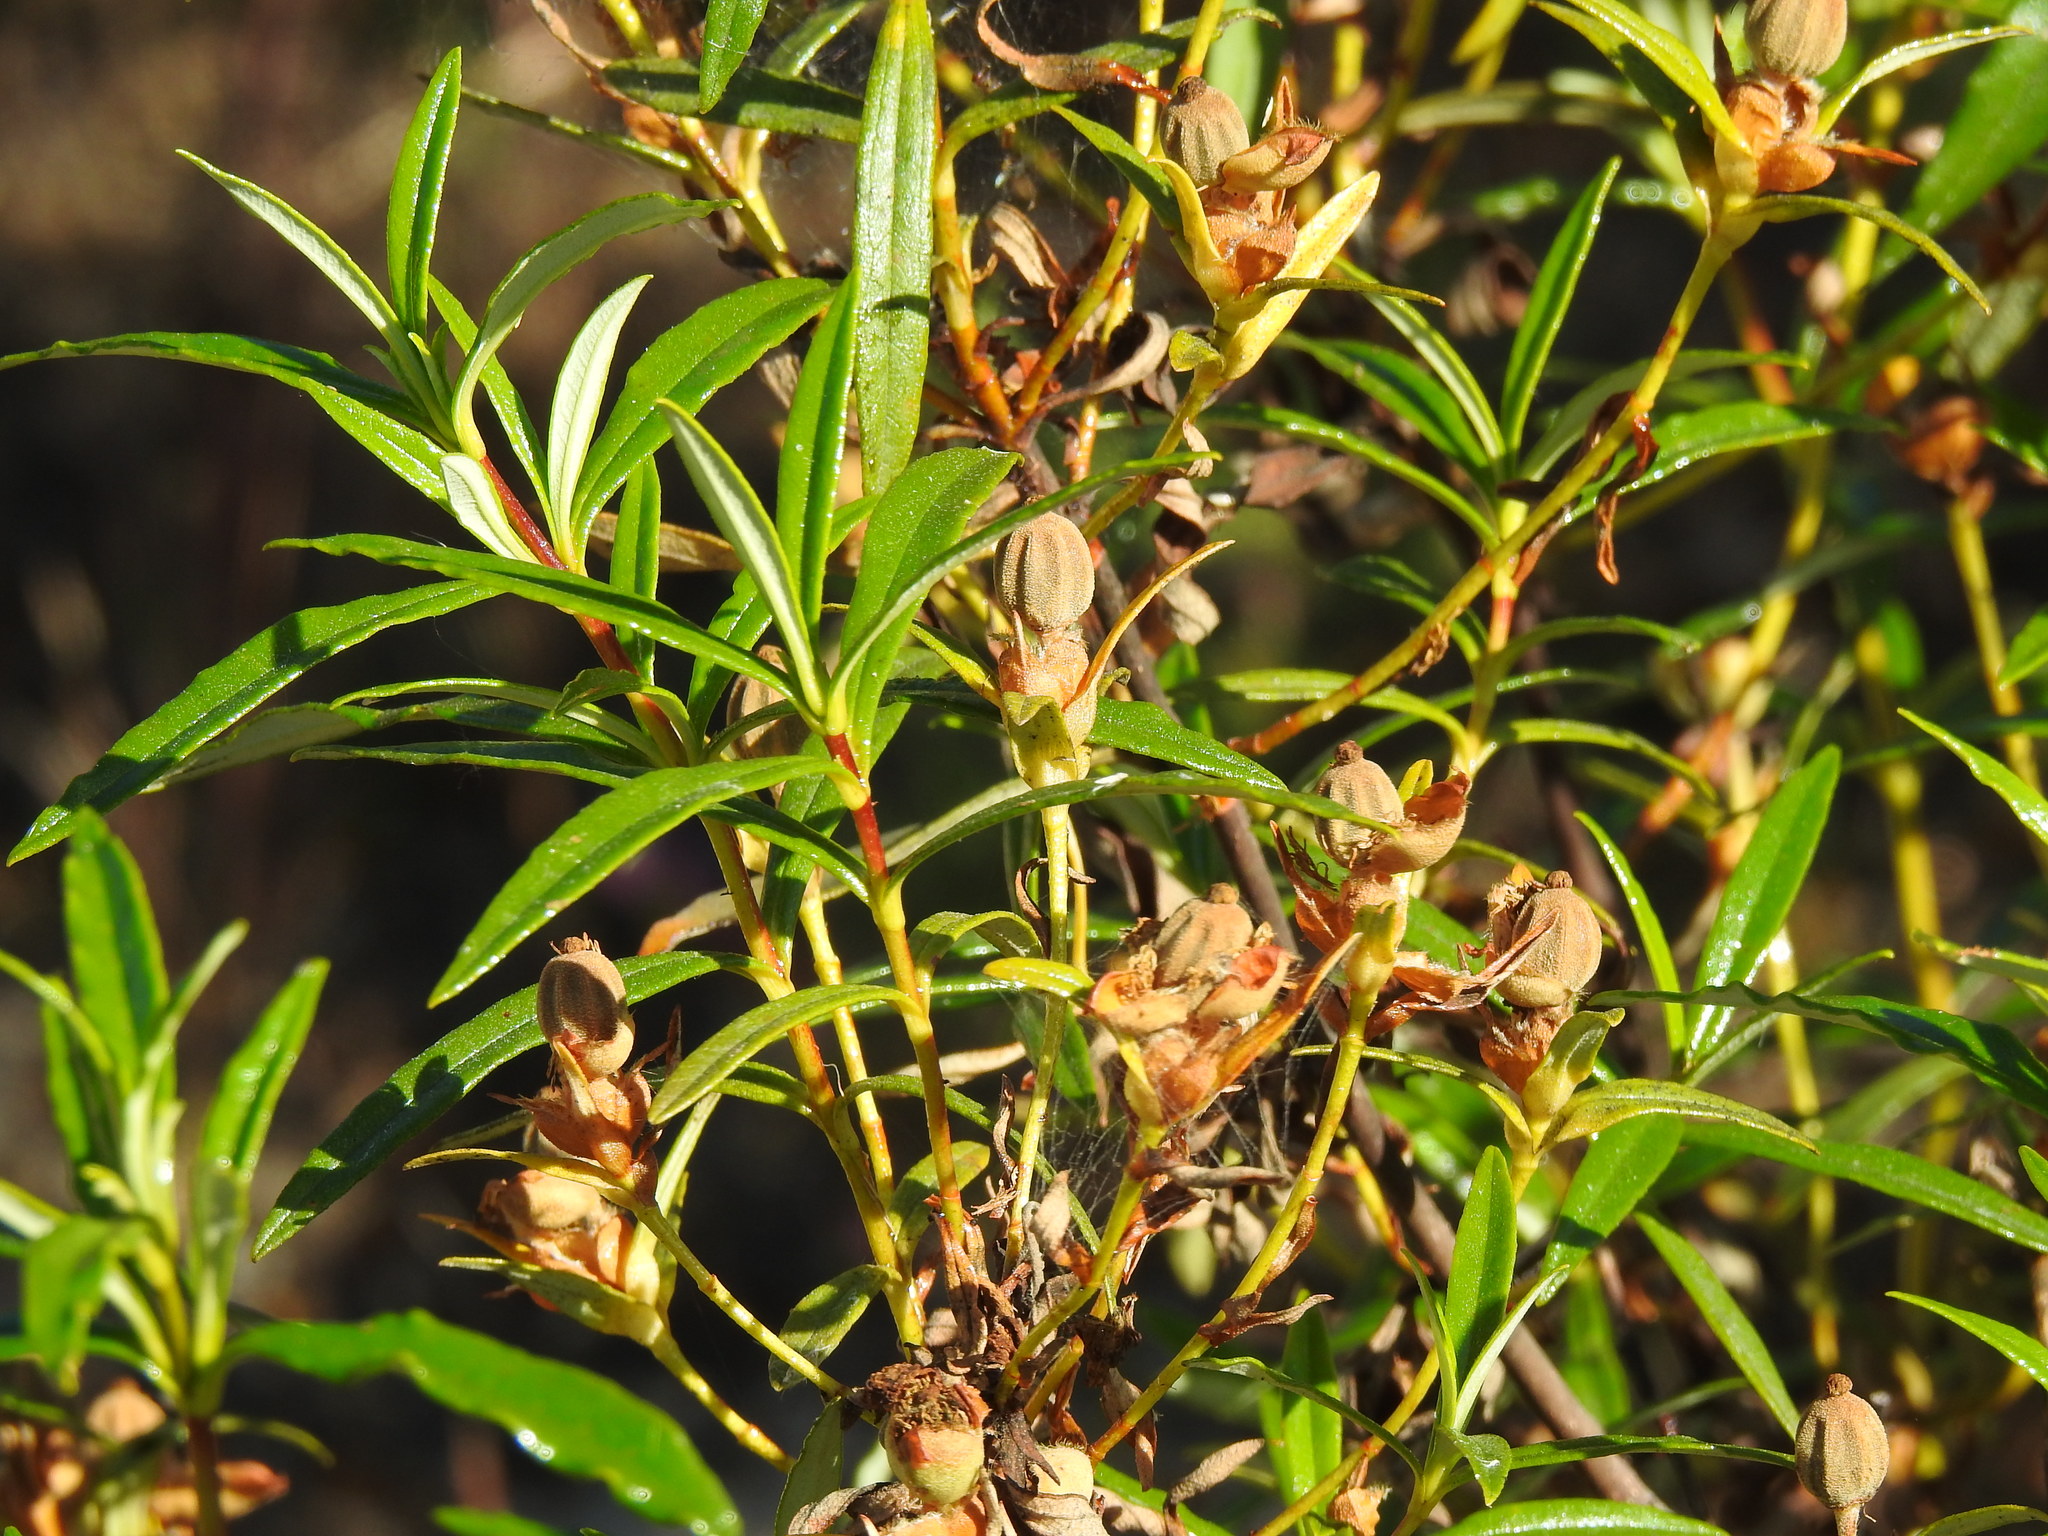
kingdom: Plantae
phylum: Tracheophyta
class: Magnoliopsida
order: Malvales
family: Cistaceae
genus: Cistus
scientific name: Cistus ladanifer
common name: Common gum cistus
